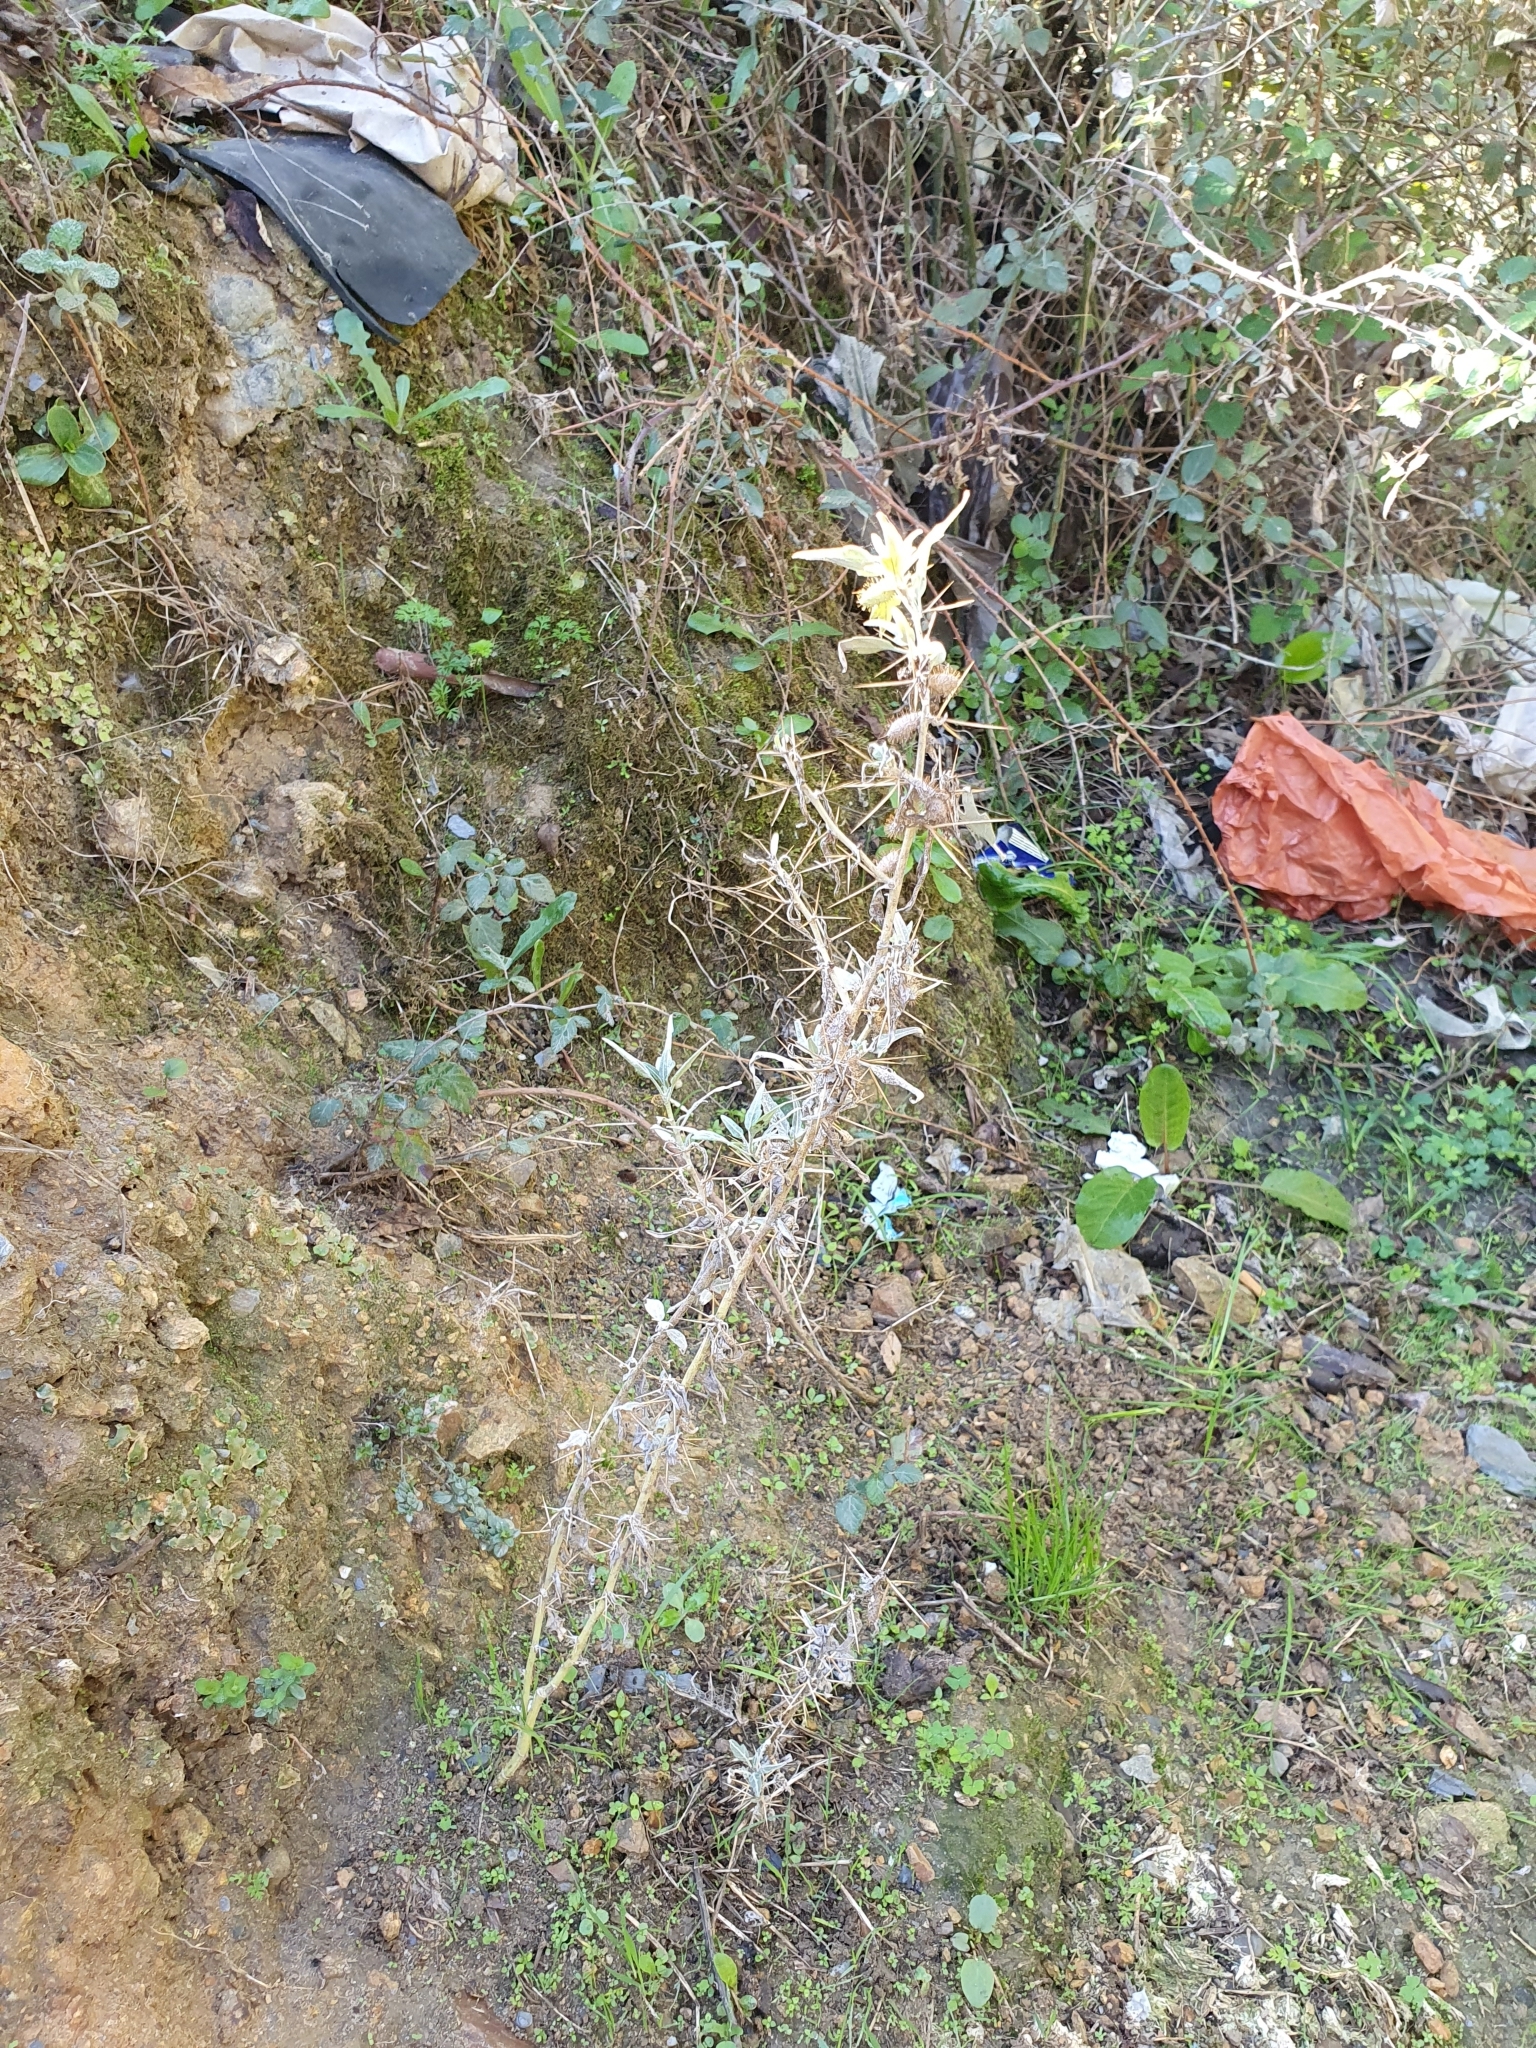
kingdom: Plantae
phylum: Tracheophyta
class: Magnoliopsida
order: Asterales
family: Asteraceae
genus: Xanthium
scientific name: Xanthium spinosum
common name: Spiny cocklebur
